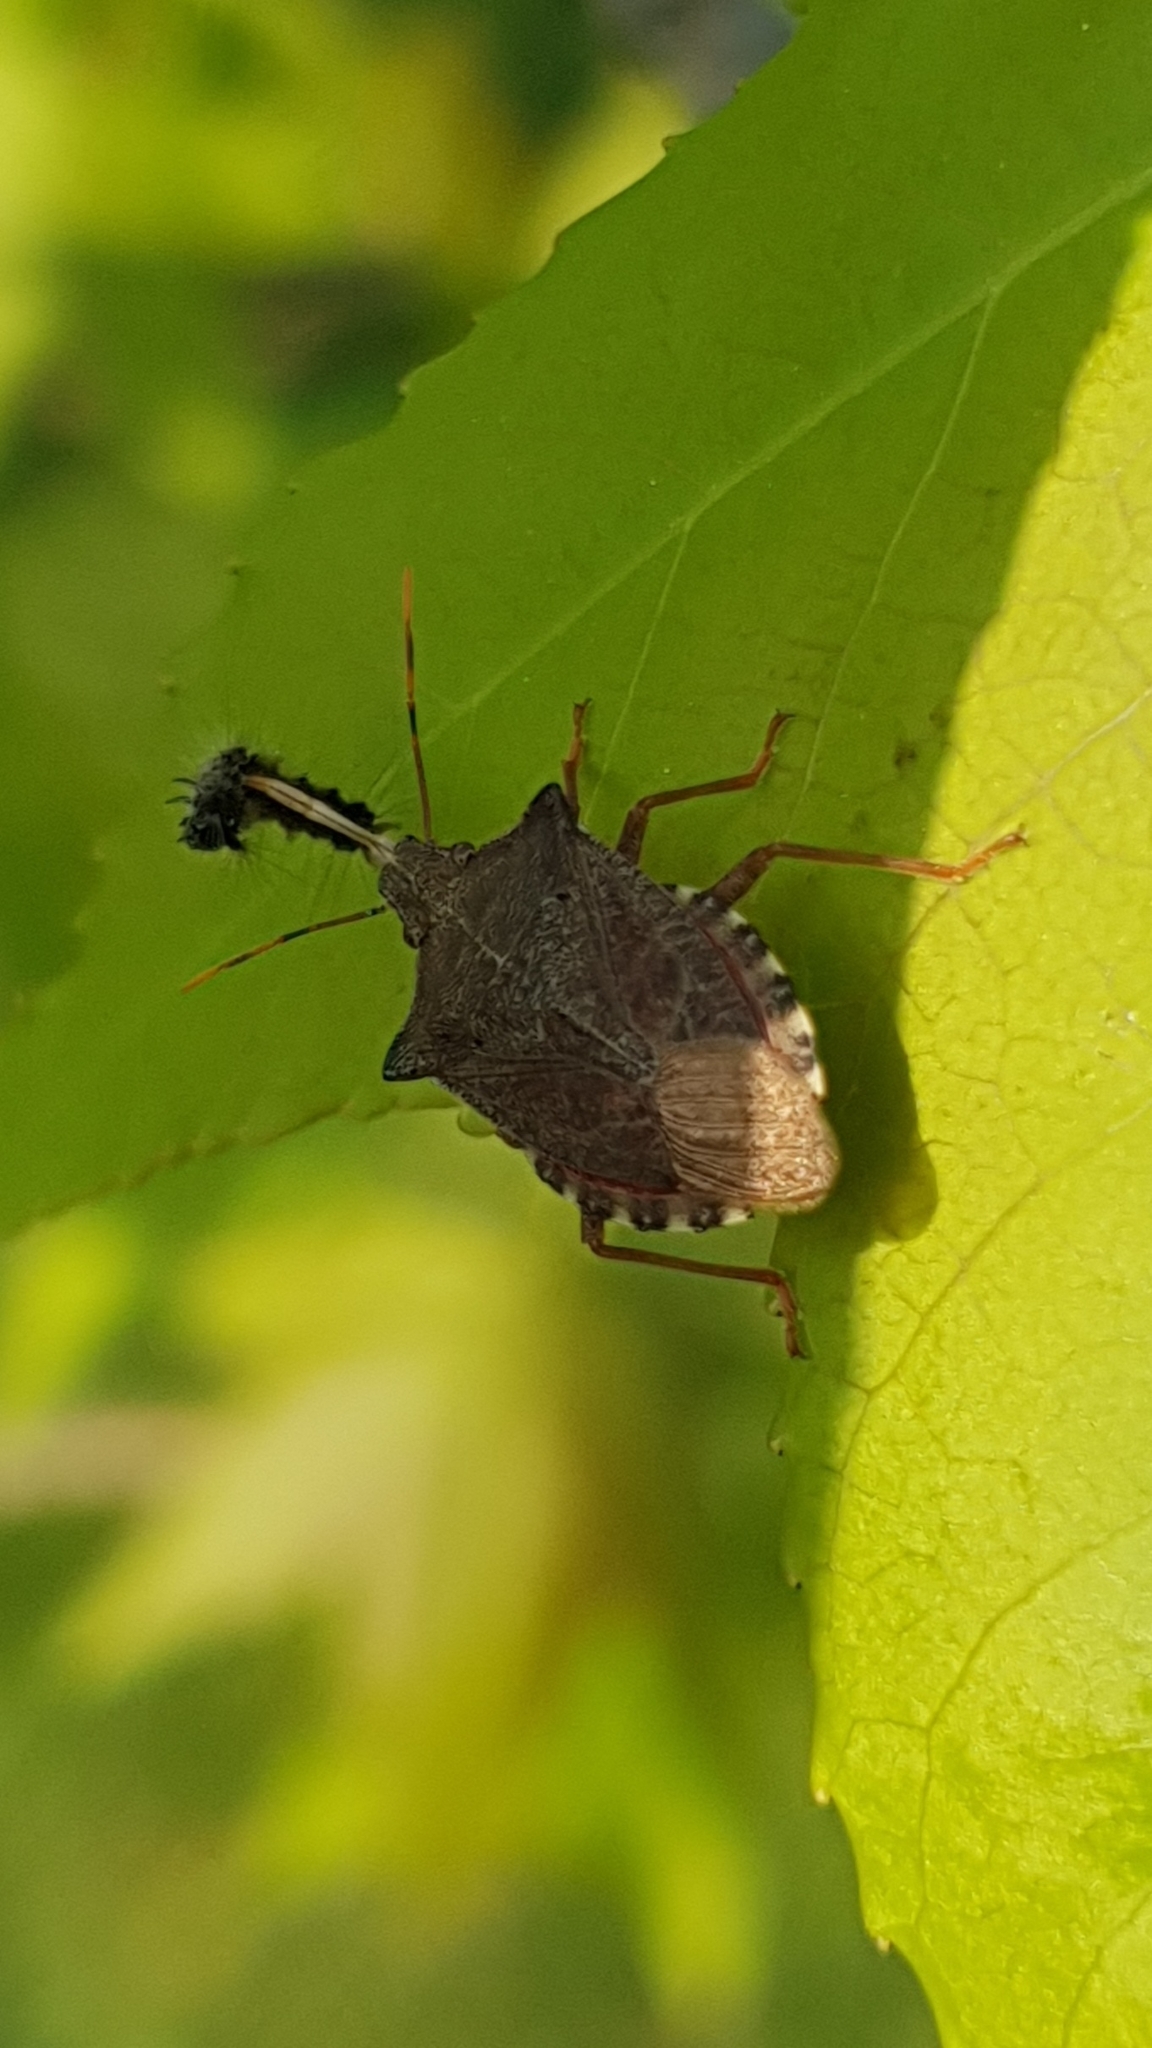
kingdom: Animalia
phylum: Arthropoda
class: Insecta
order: Hemiptera
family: Pentatomidae
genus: Arma
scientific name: Arma custos
